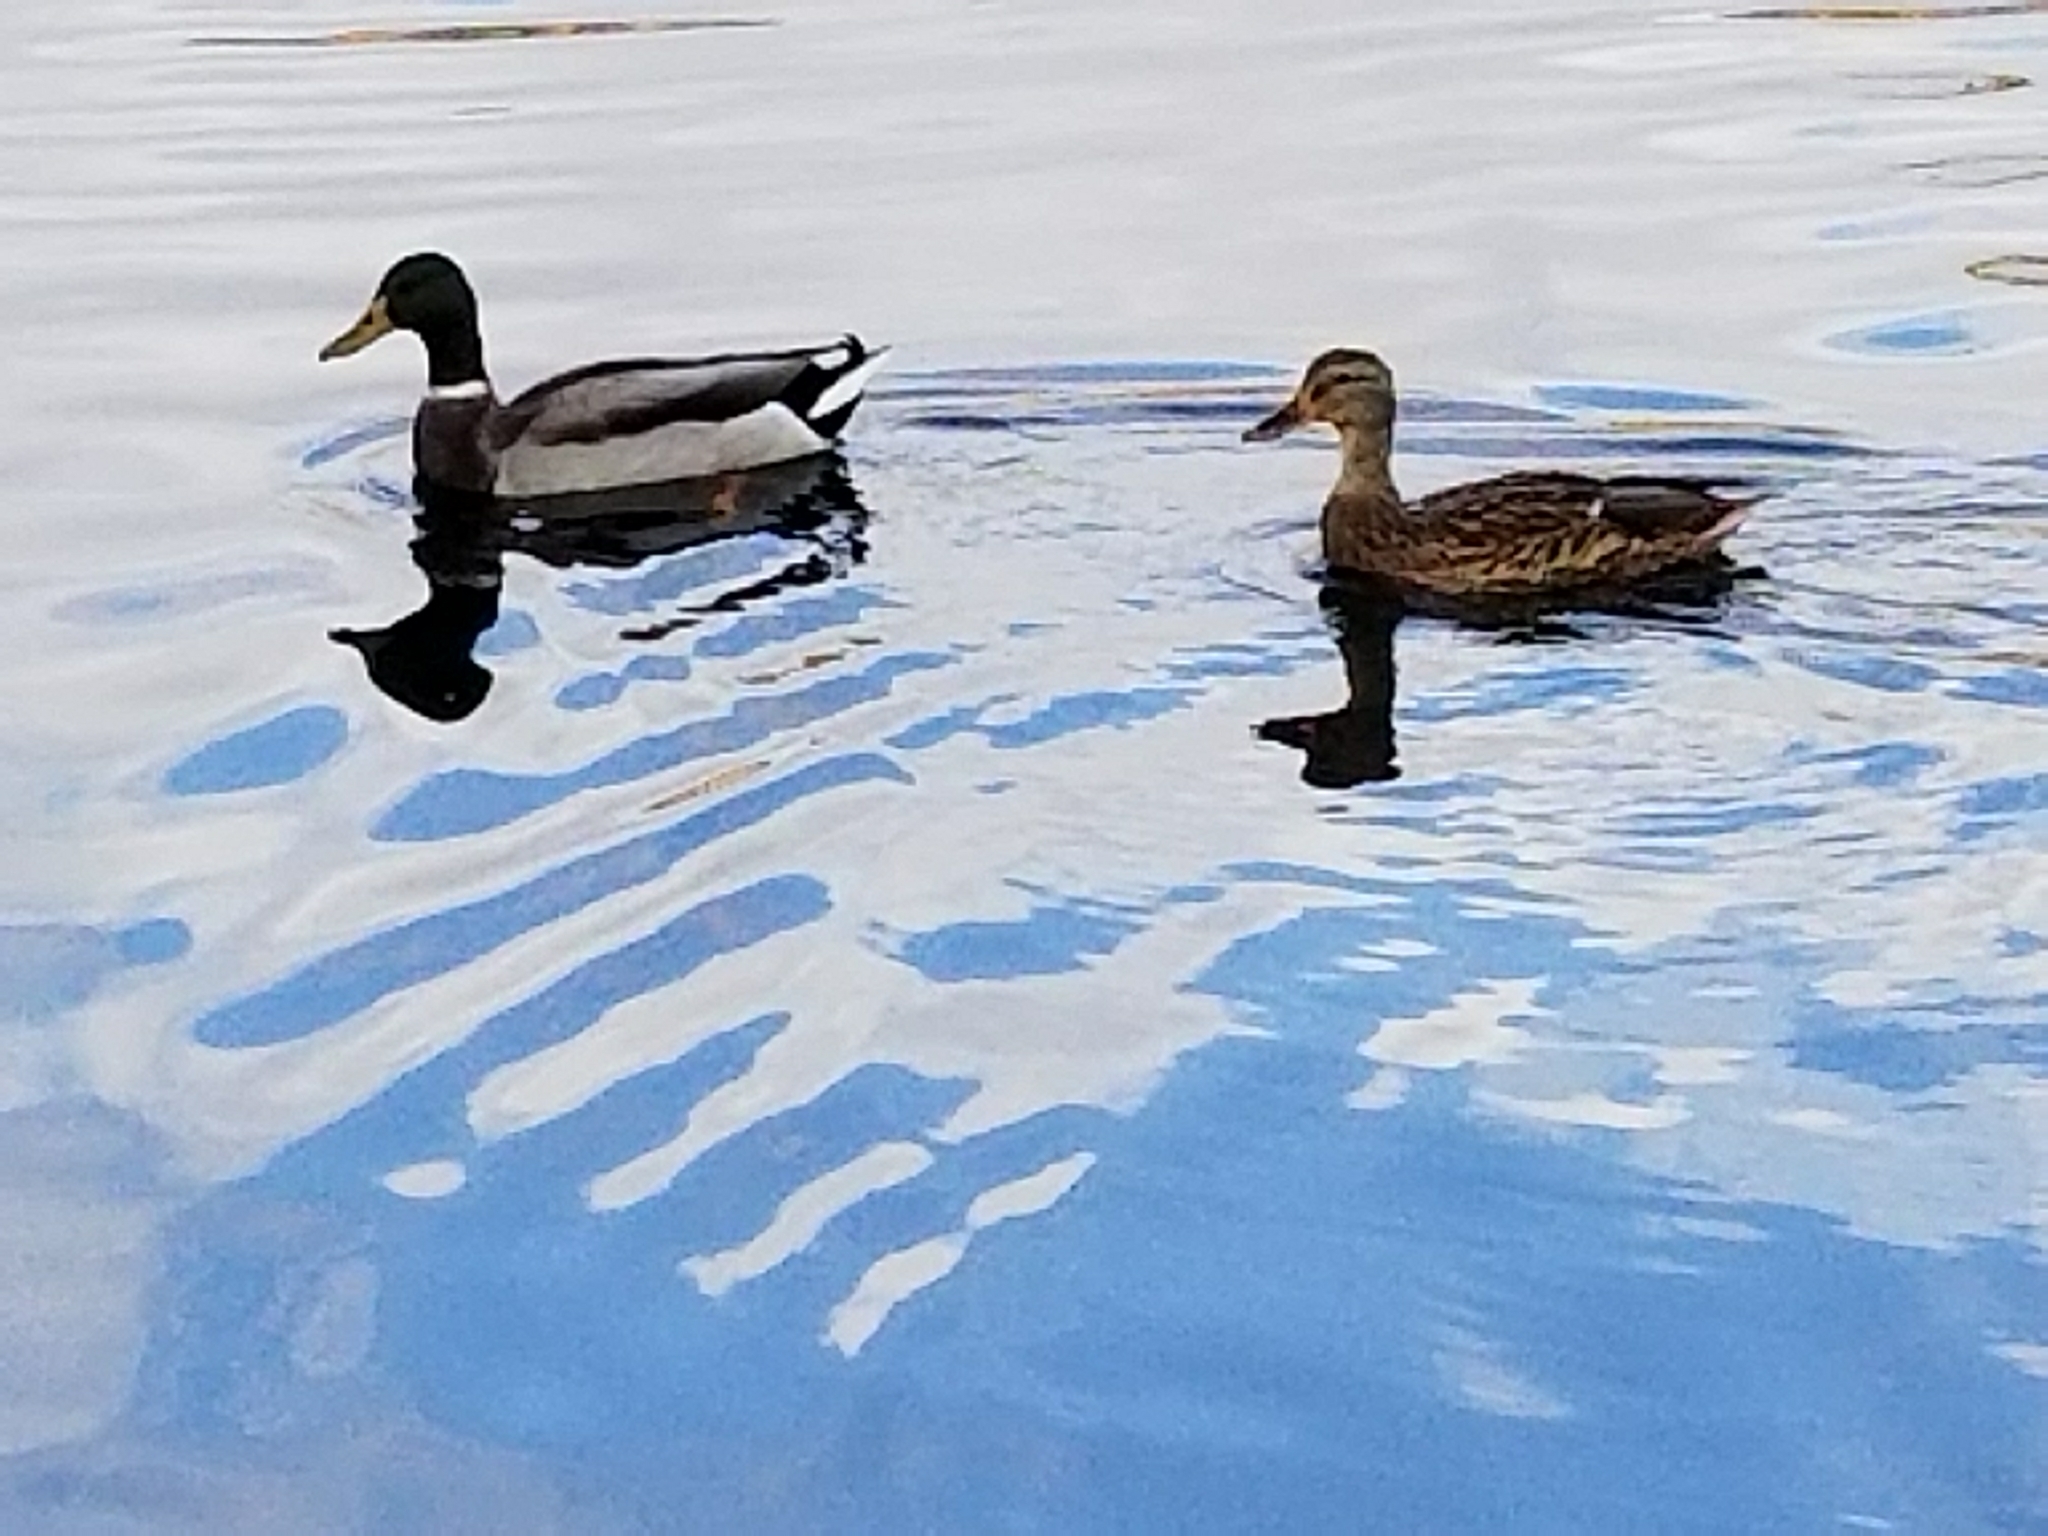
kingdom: Animalia
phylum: Chordata
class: Aves
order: Anseriformes
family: Anatidae
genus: Anas
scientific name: Anas platyrhynchos
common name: Mallard
